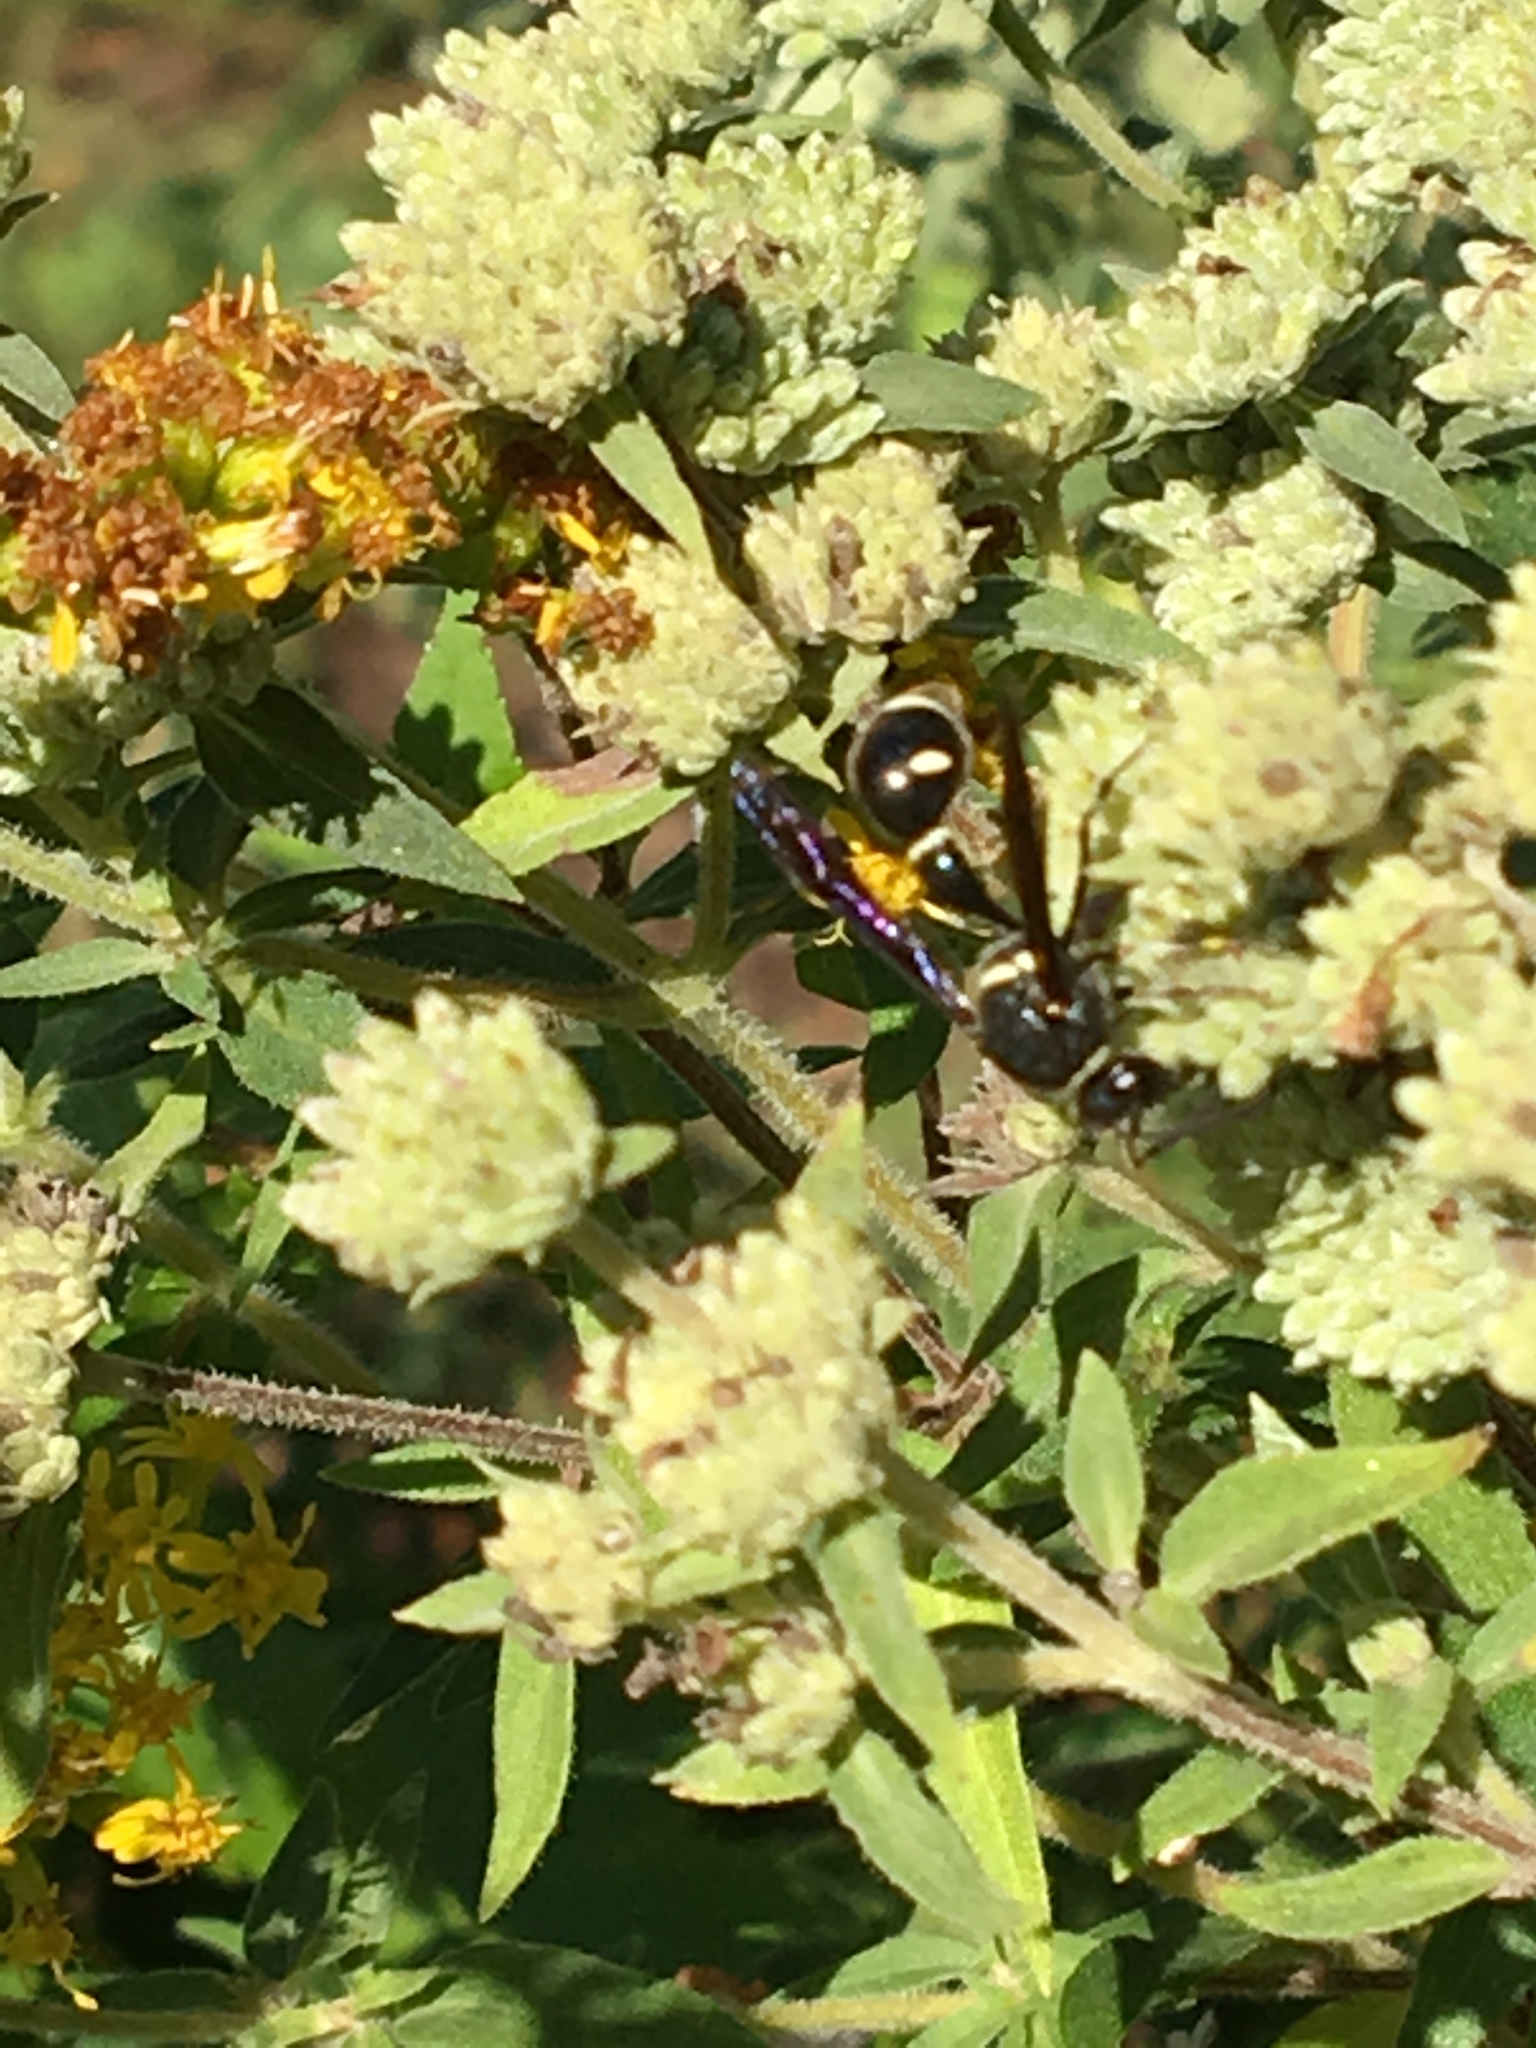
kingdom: Animalia
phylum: Arthropoda
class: Insecta
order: Hymenoptera
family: Vespidae
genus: Eumenes
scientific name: Eumenes fraternus
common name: Fraternal potter wasp
